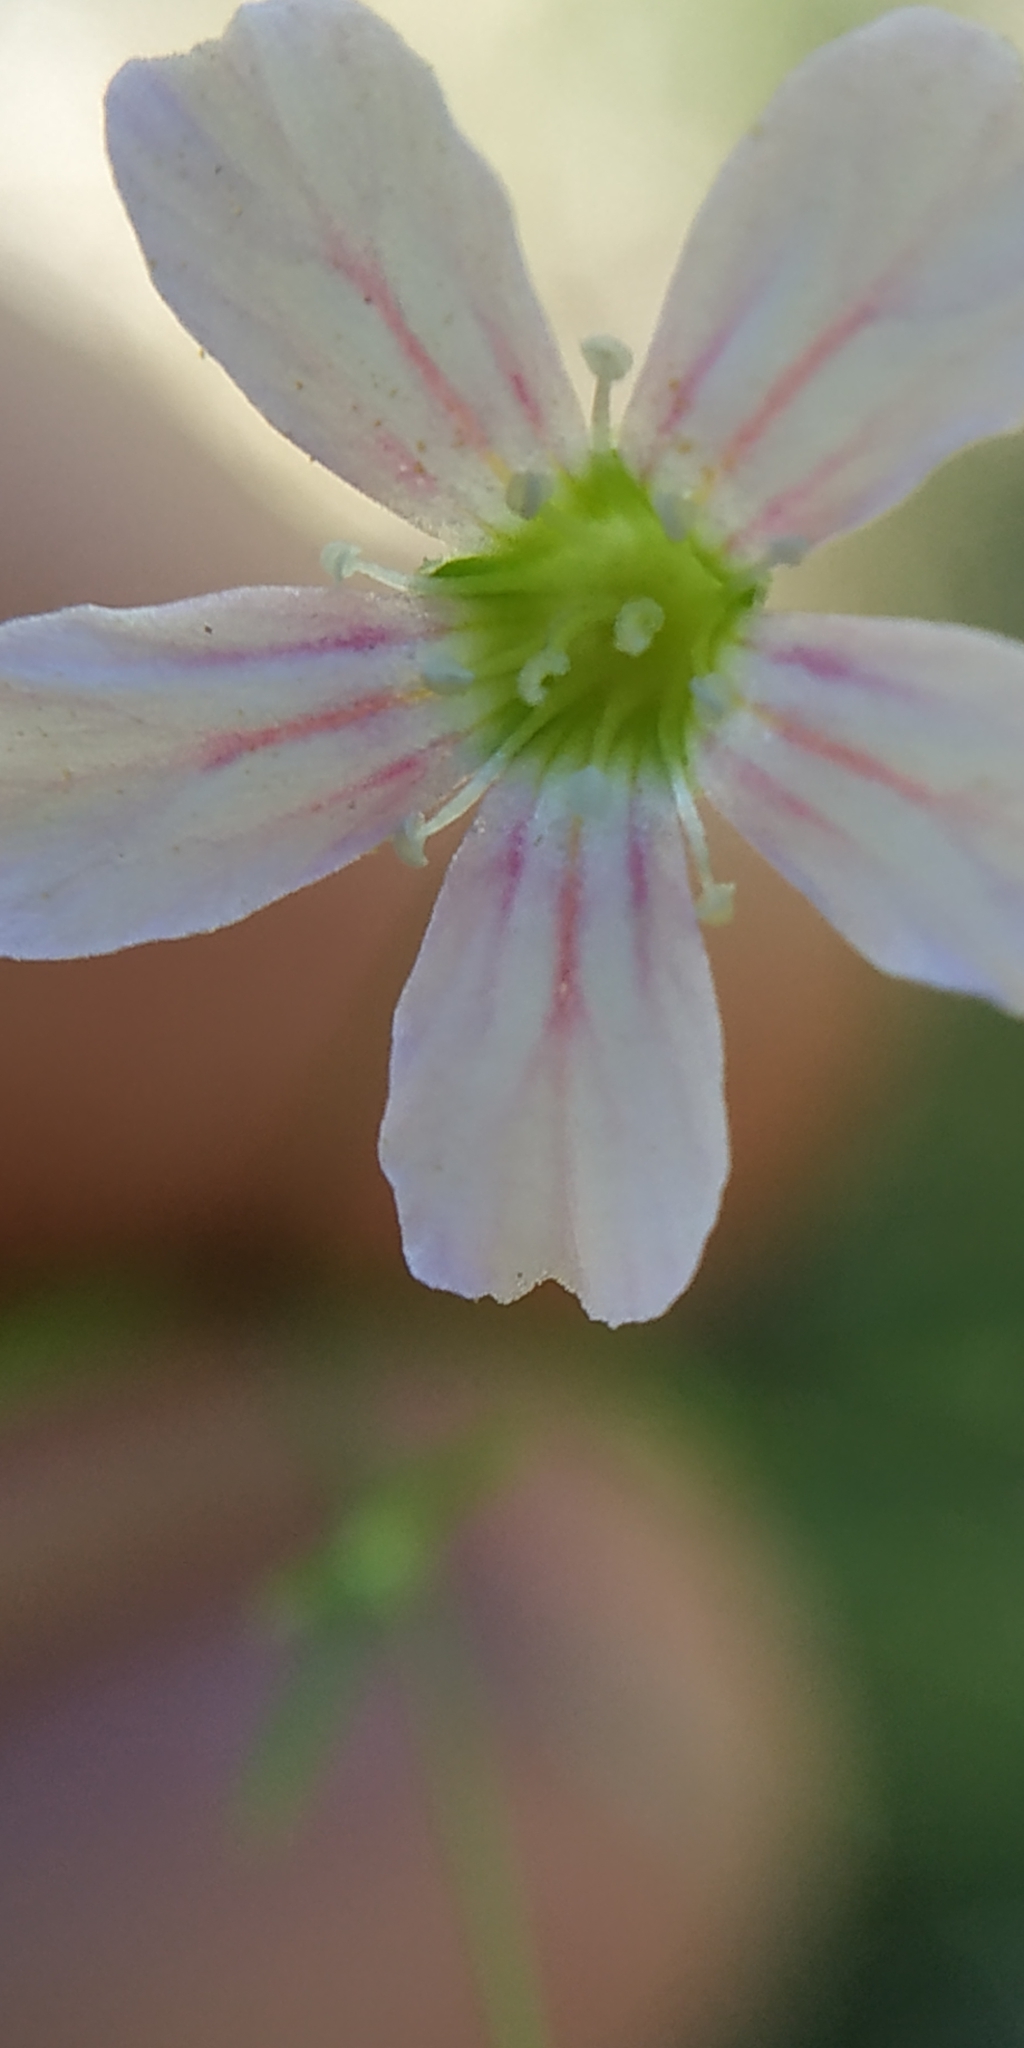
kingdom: Plantae
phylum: Tracheophyta
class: Magnoliopsida
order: Caryophyllales
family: Caryophyllaceae
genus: Psammophiliella
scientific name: Psammophiliella muralis
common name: Cushion baby's-breath
